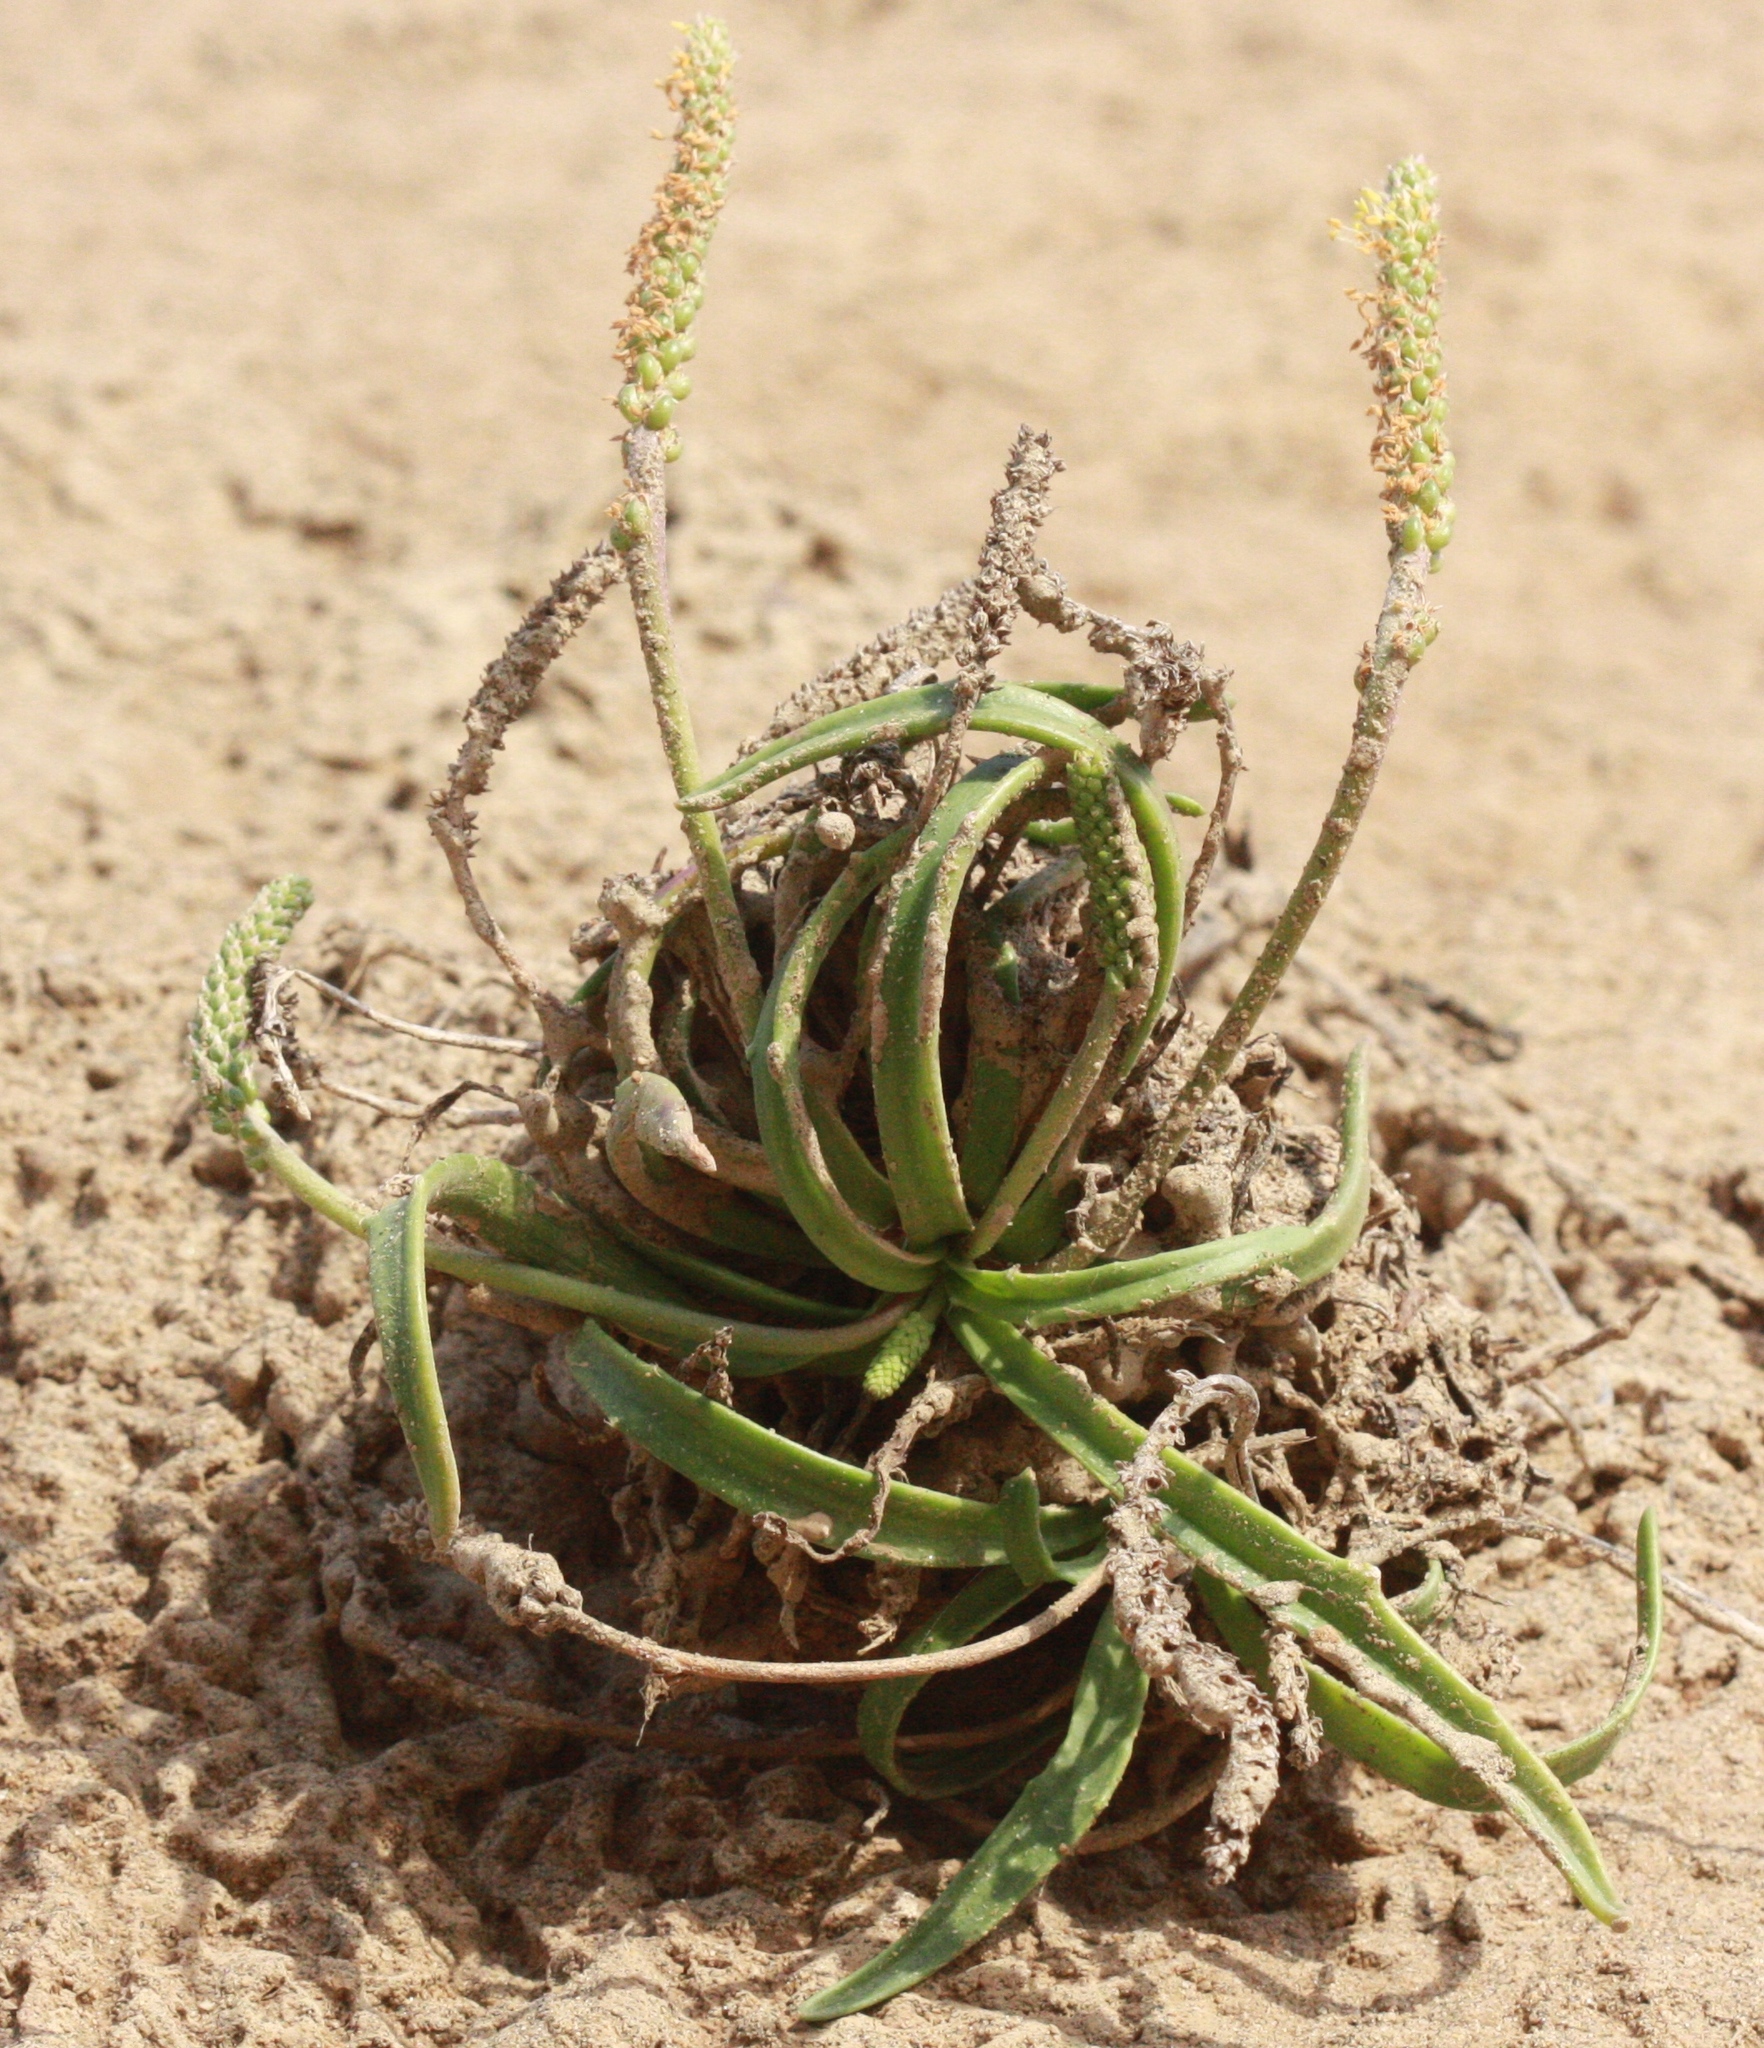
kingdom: Plantae
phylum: Tracheophyta
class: Magnoliopsida
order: Lamiales
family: Plantaginaceae
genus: Plantago
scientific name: Plantago maritima
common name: Sea plantain
